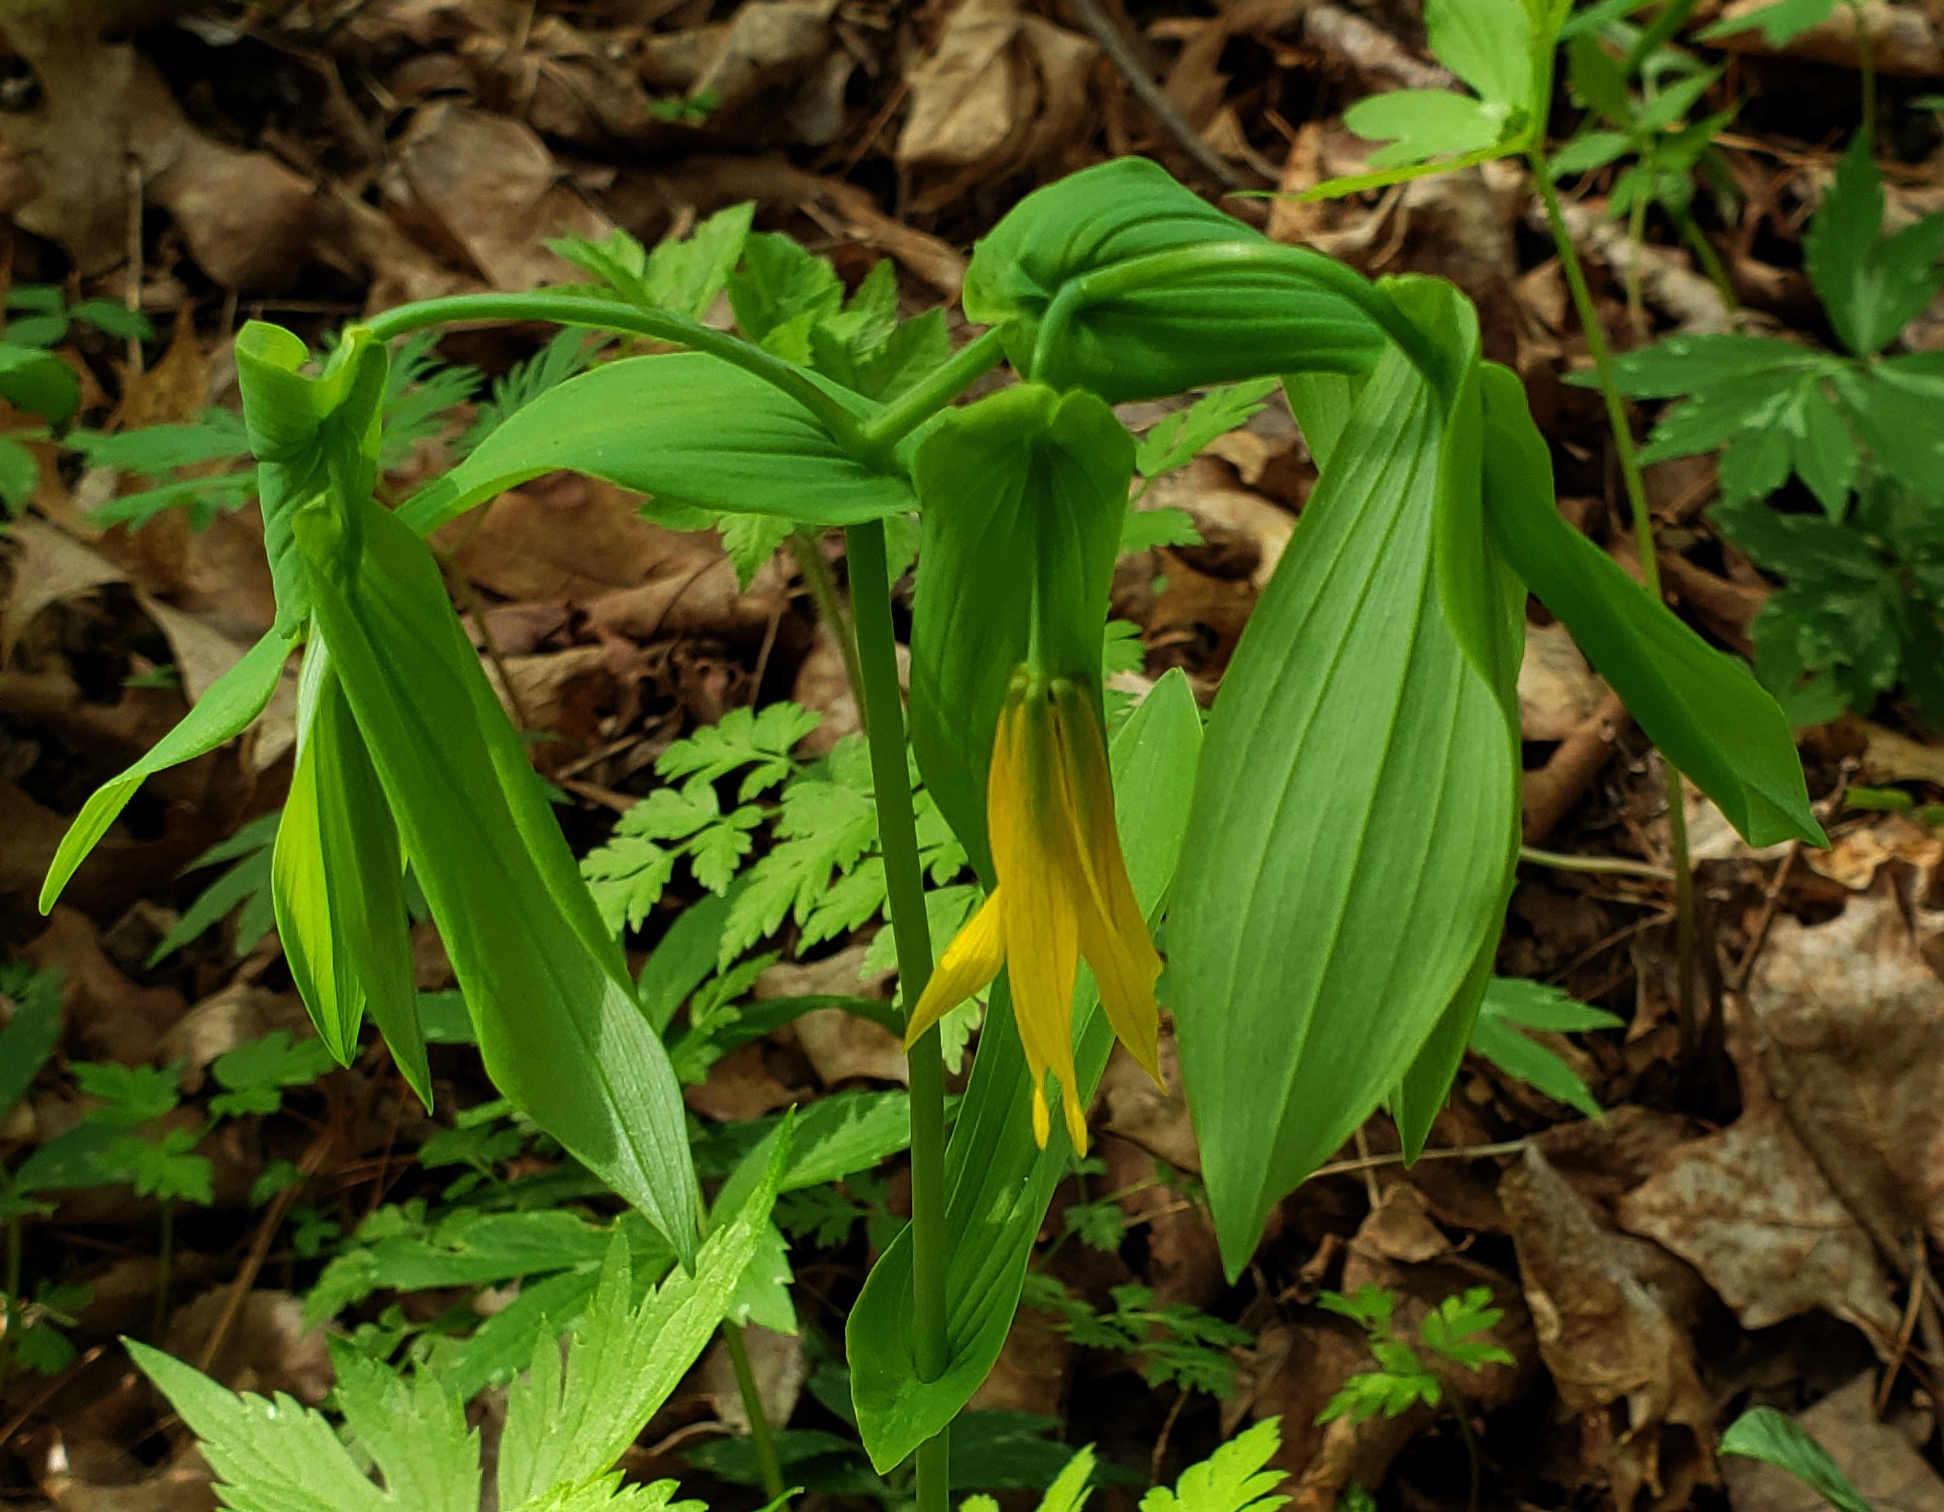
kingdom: Plantae
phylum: Tracheophyta
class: Liliopsida
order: Liliales
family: Colchicaceae
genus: Uvularia
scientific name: Uvularia grandiflora
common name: Bellwort
